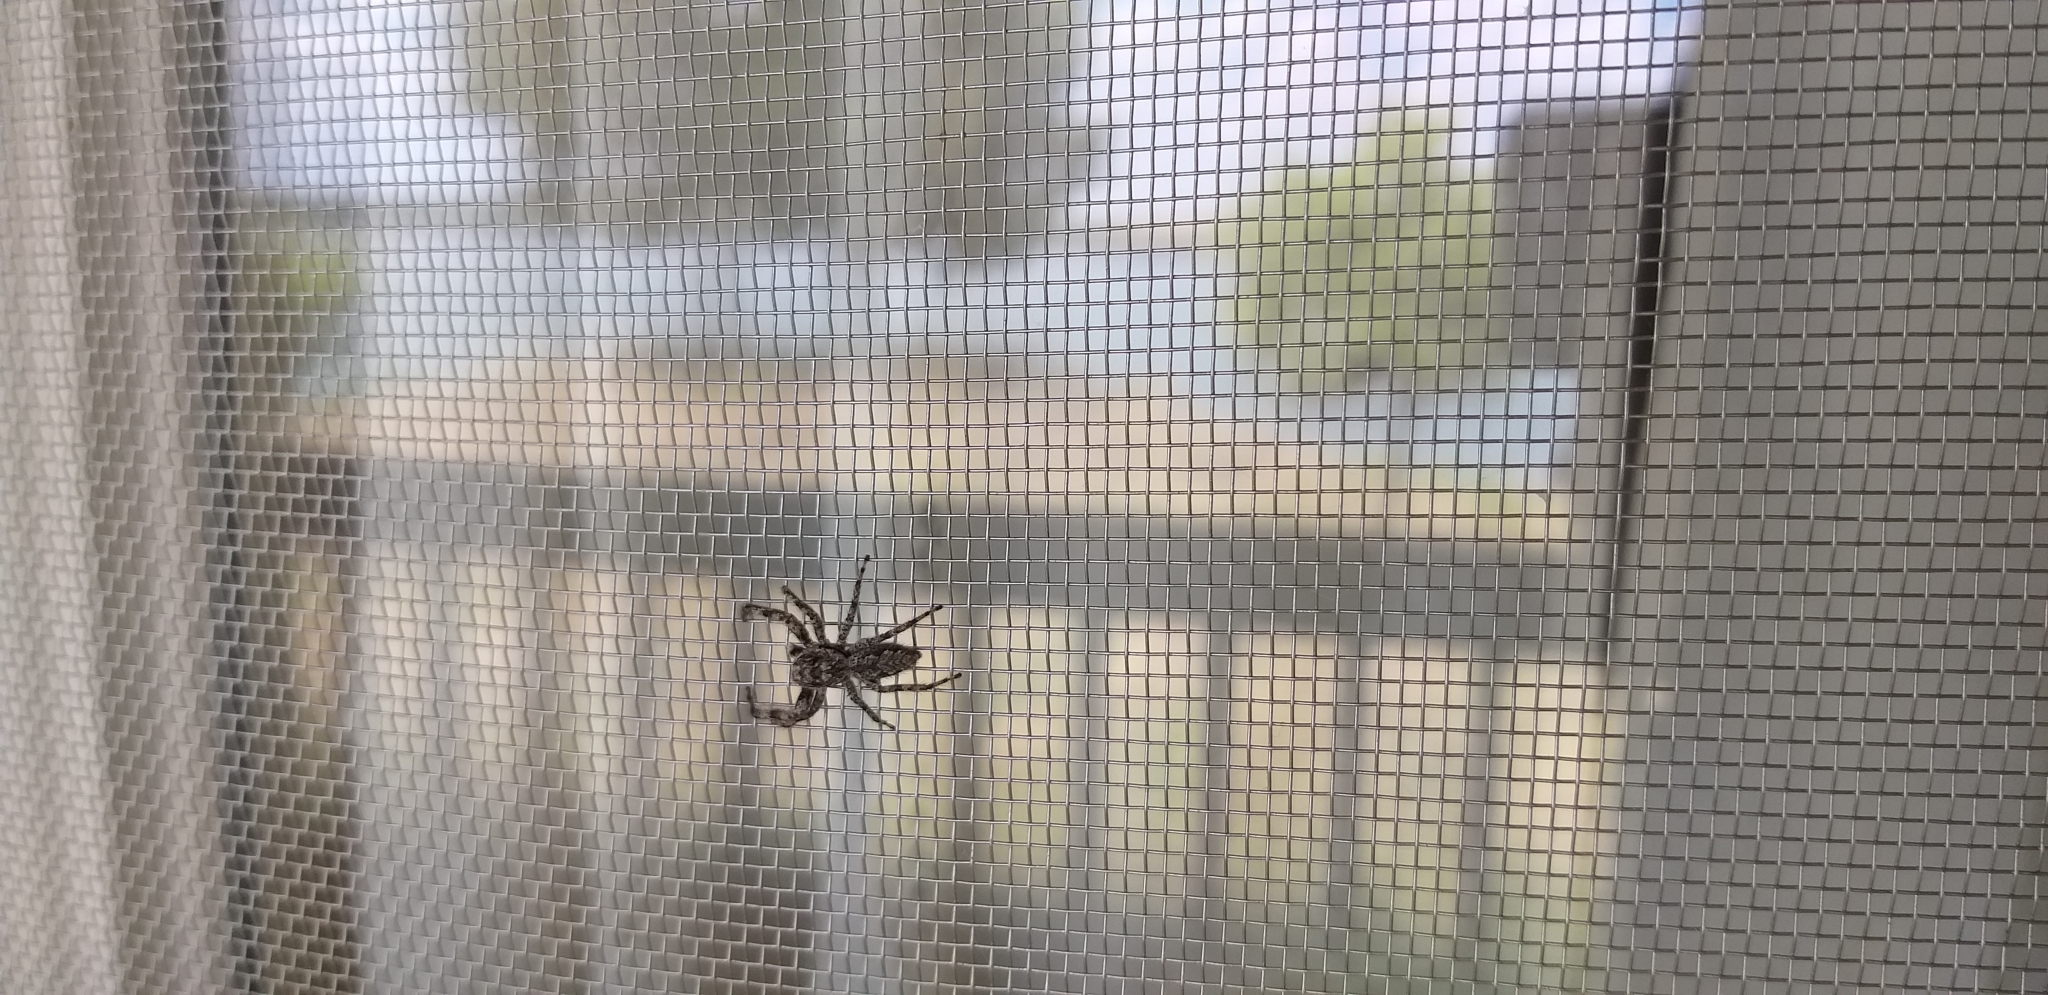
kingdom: Animalia
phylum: Arthropoda
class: Arachnida
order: Araneae
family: Salticidae
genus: Platycryptus
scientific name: Platycryptus undatus
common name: Tan jumping spider
